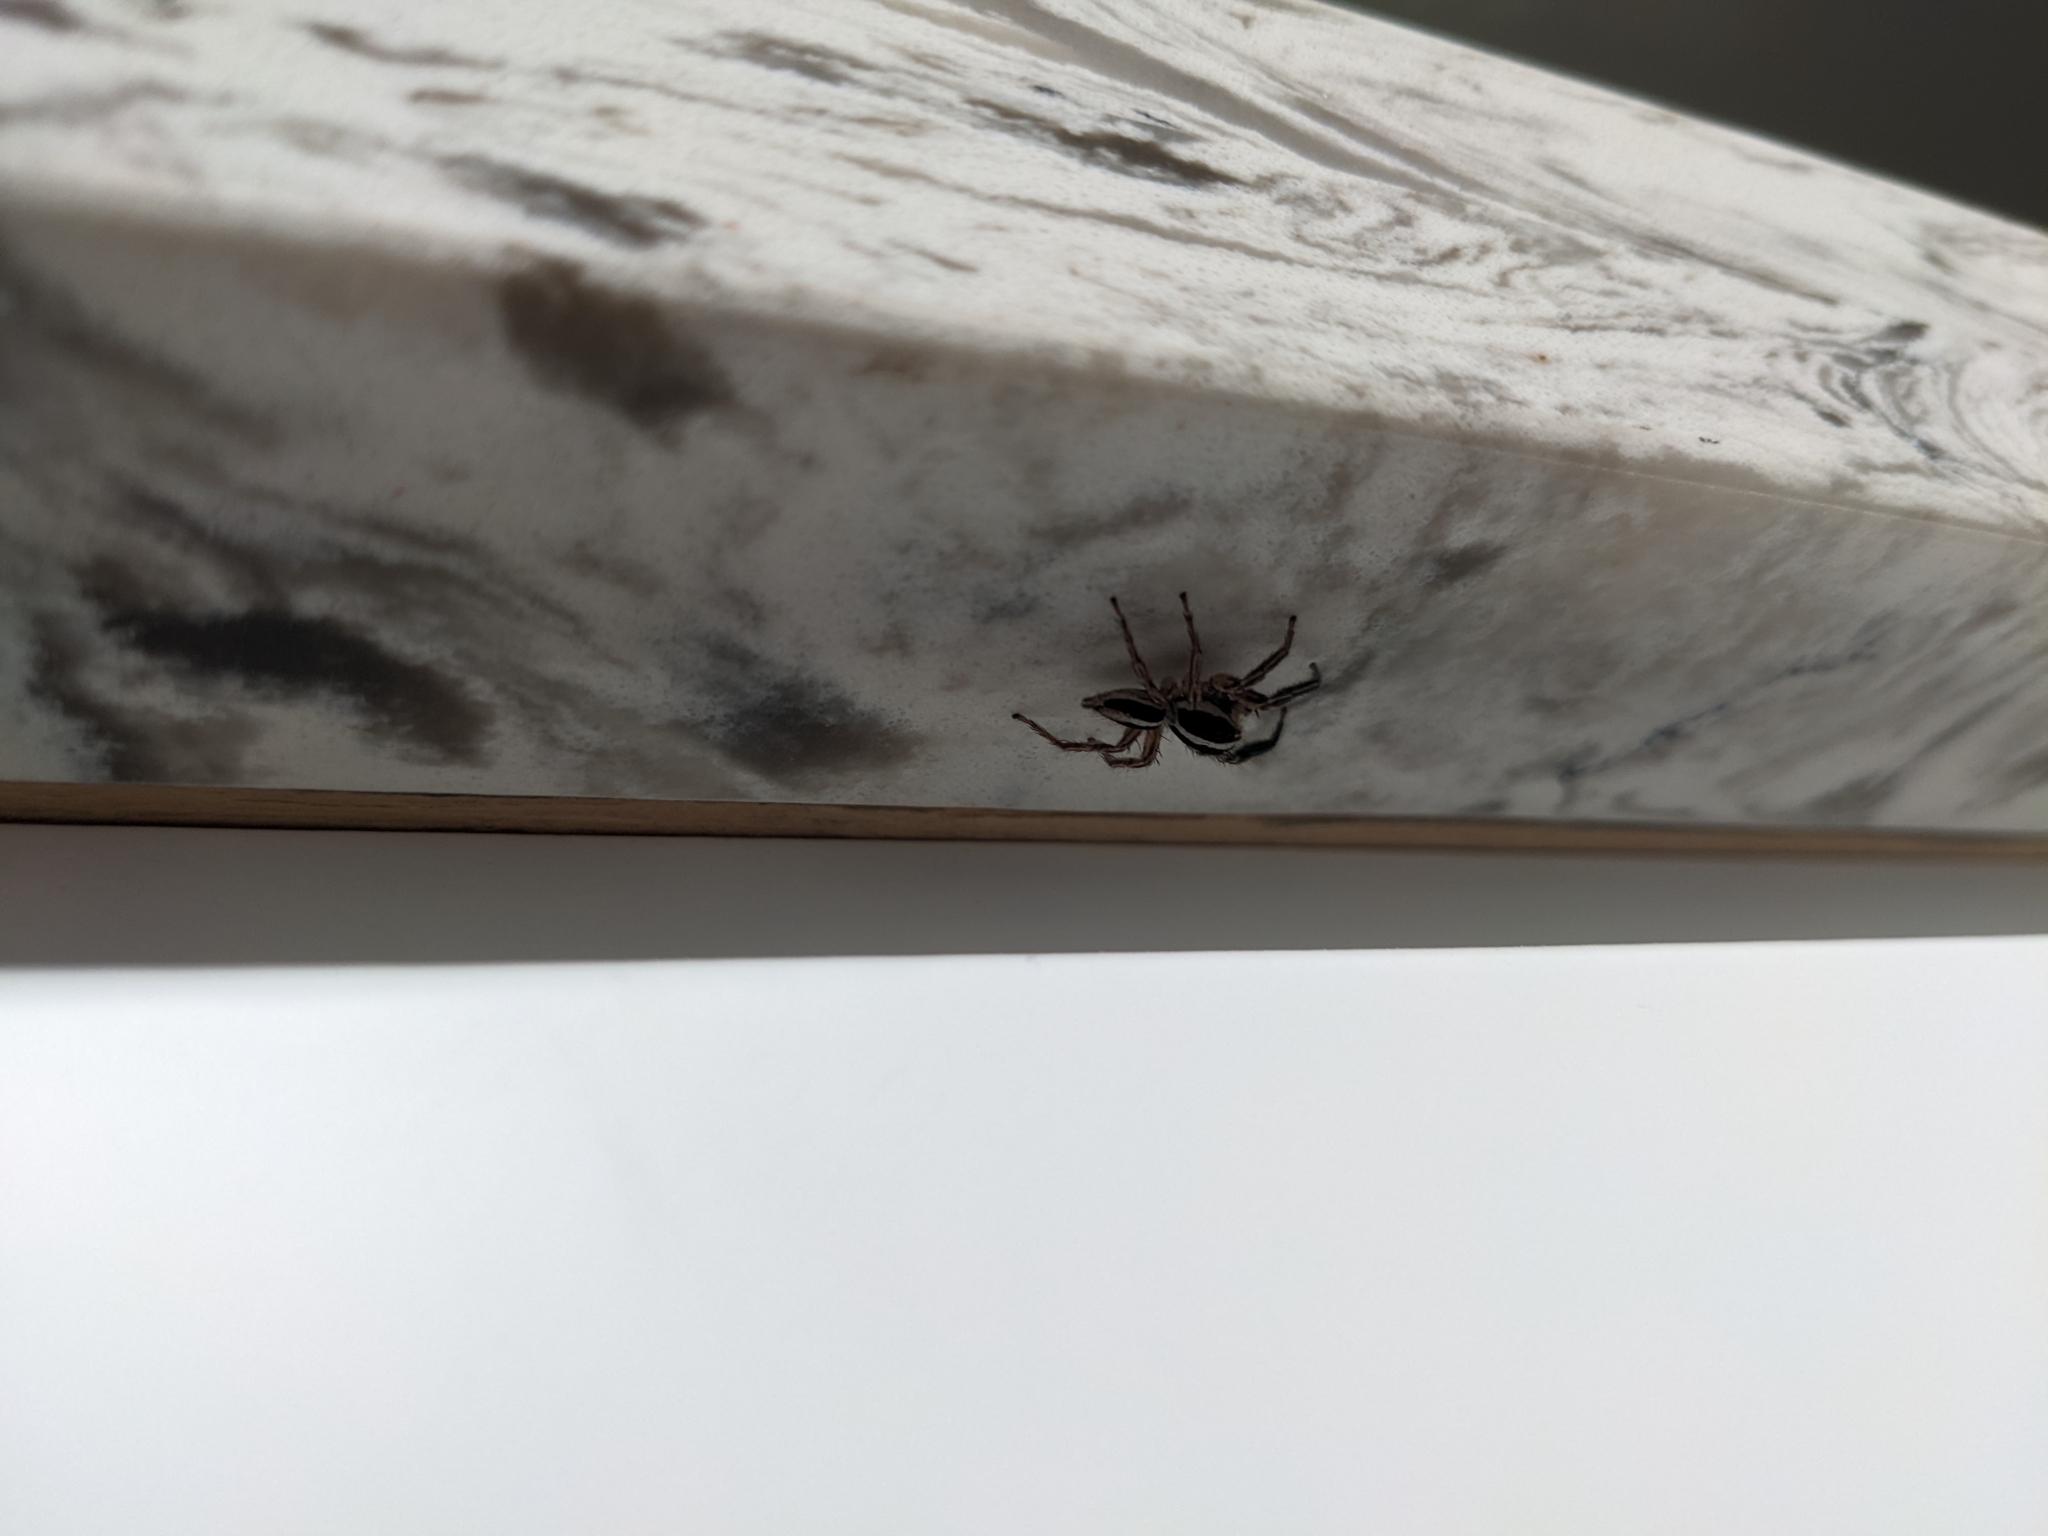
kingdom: Animalia
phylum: Arthropoda
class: Arachnida
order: Araneae
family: Salticidae
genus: Plexippus
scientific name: Plexippus paykulli
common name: Pantropical jumper
